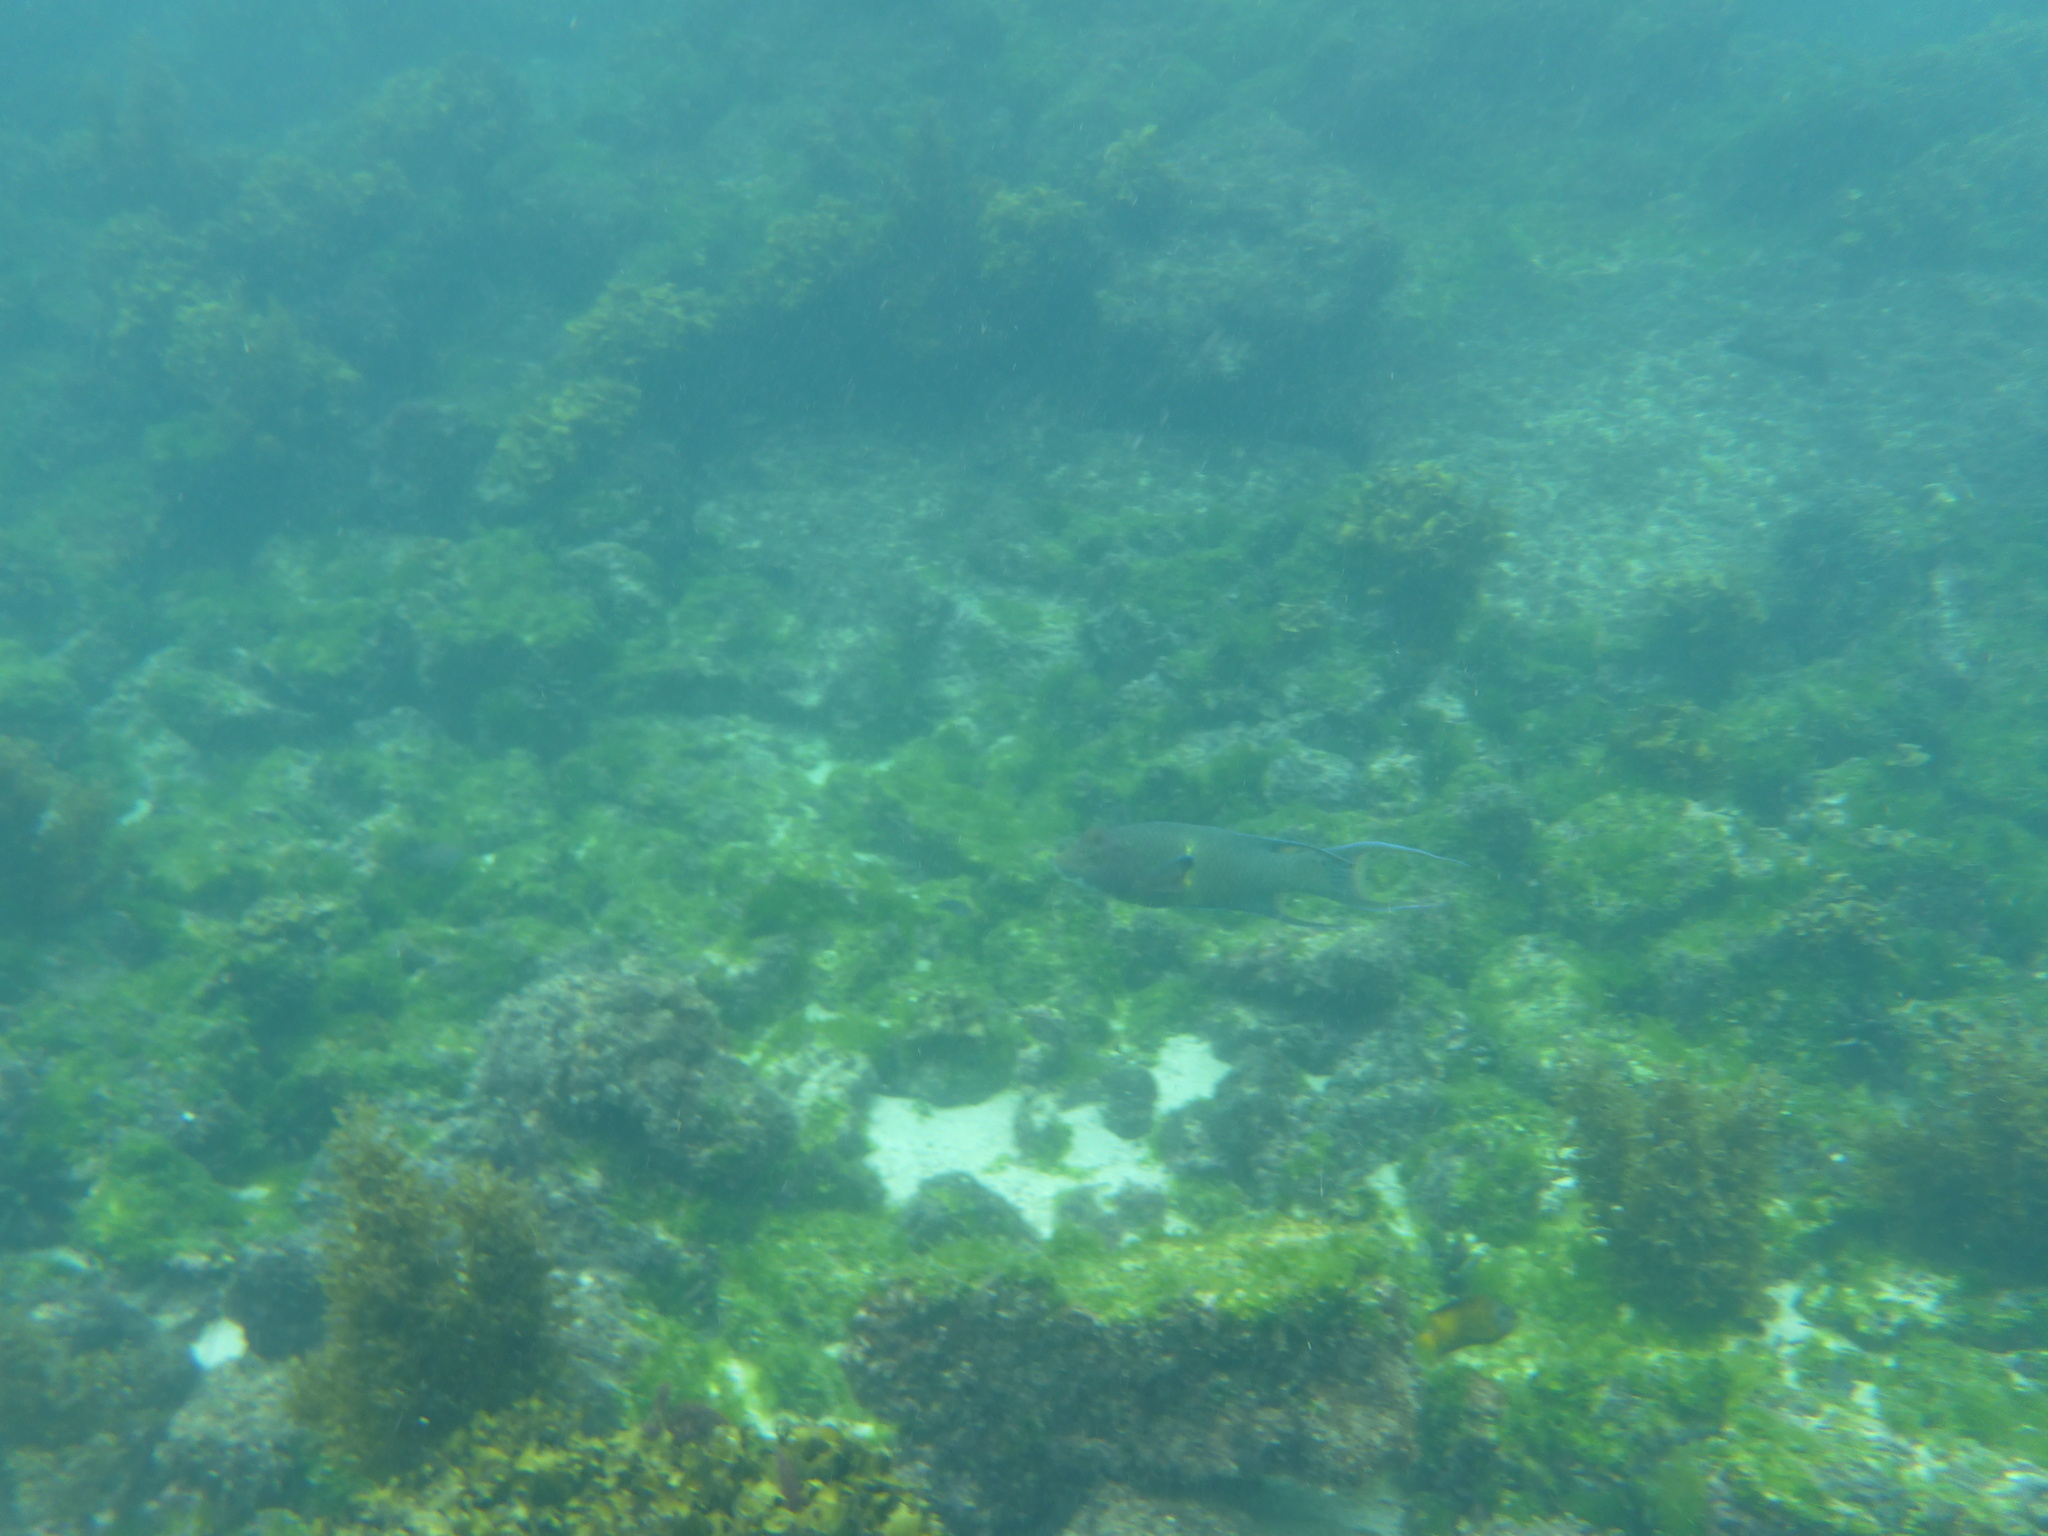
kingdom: Animalia
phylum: Chordata
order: Perciformes
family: Labridae
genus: Bodianus
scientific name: Bodianus diplotaenia
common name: Mexican hogfish
